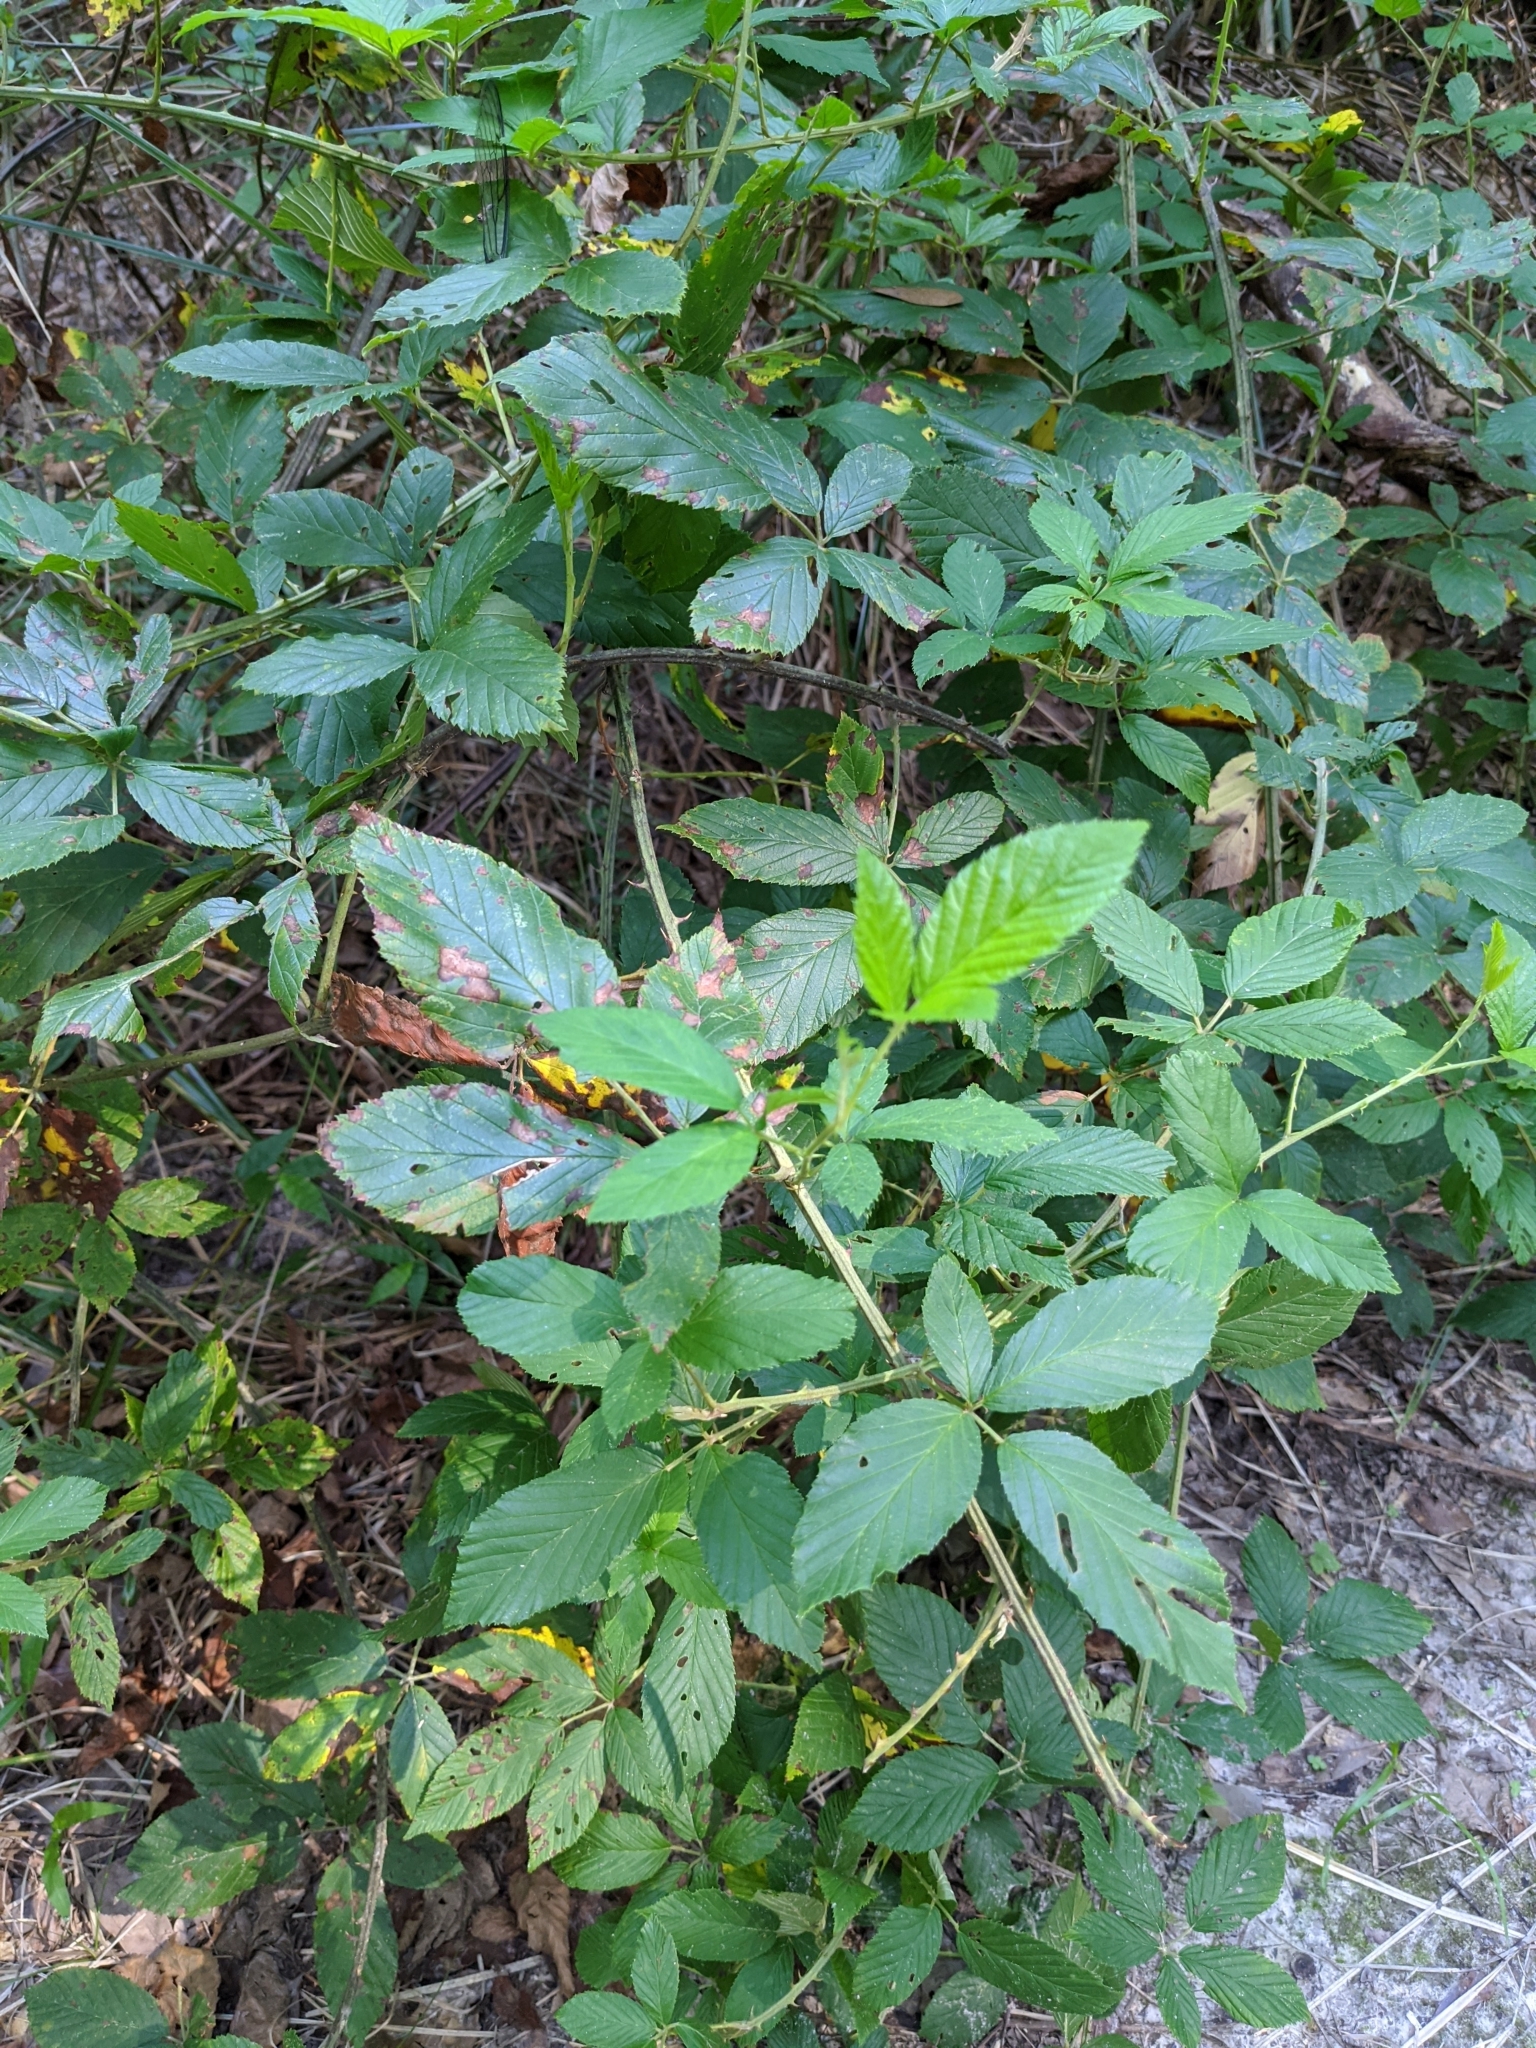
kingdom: Plantae
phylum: Tracheophyta
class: Magnoliopsida
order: Rosales
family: Rosaceae
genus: Rubus
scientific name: Rubus pensilvanicus
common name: Pennsylvania blackberry
